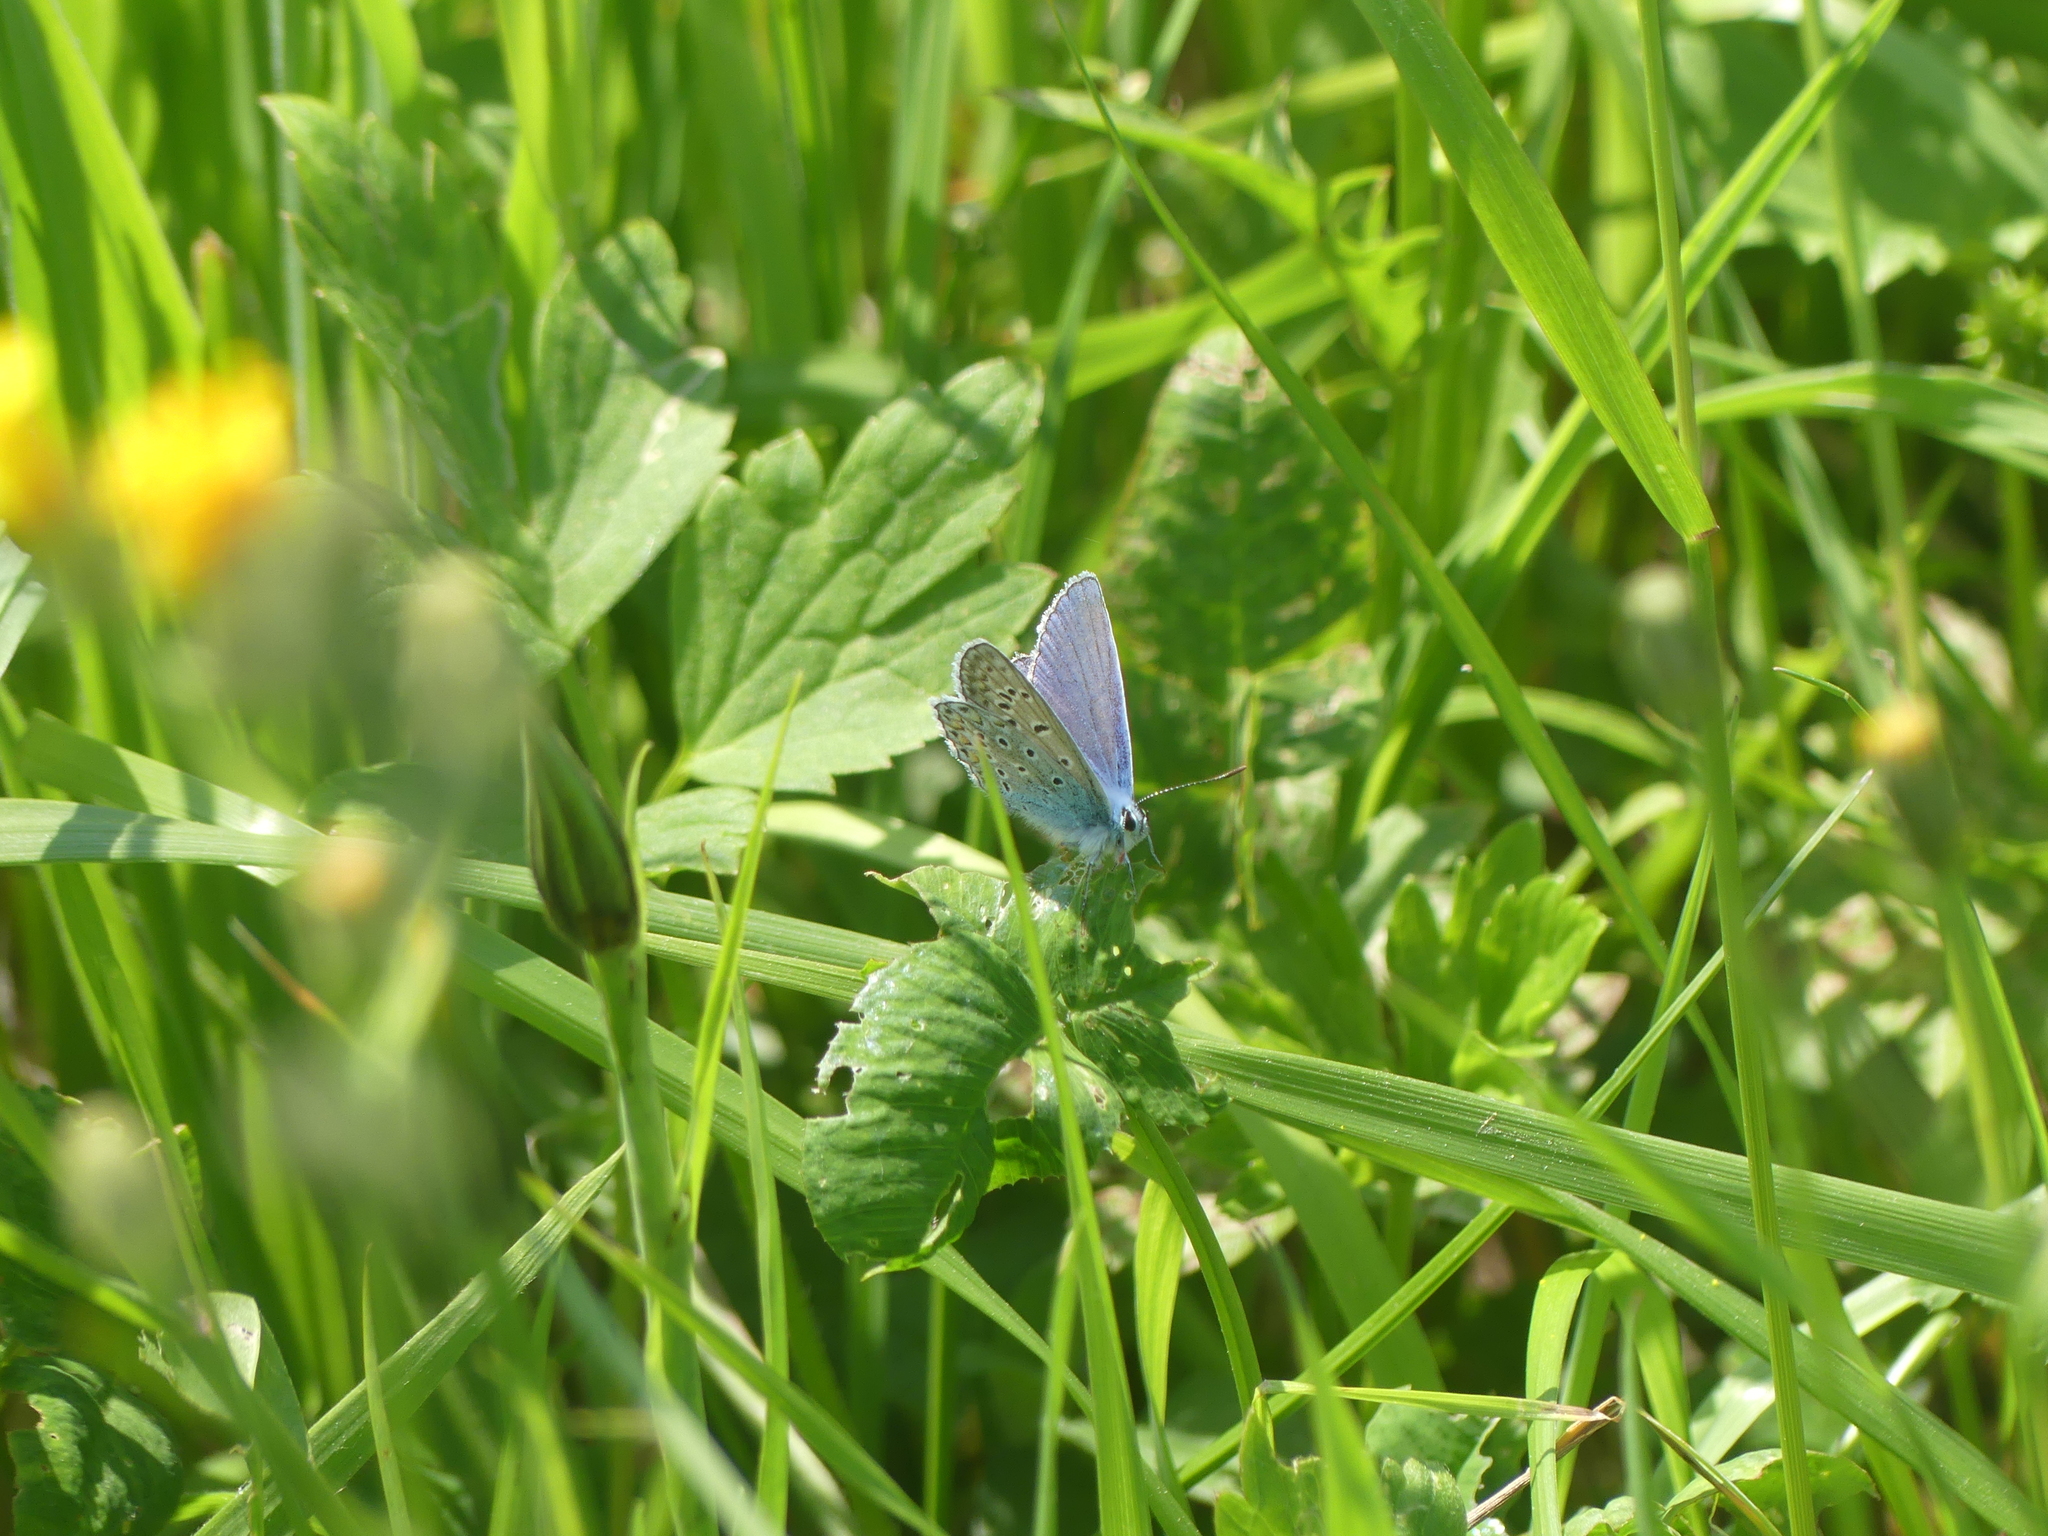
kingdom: Animalia
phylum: Arthropoda
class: Insecta
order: Lepidoptera
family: Lycaenidae
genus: Polyommatus
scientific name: Polyommatus icarus
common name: Common blue
